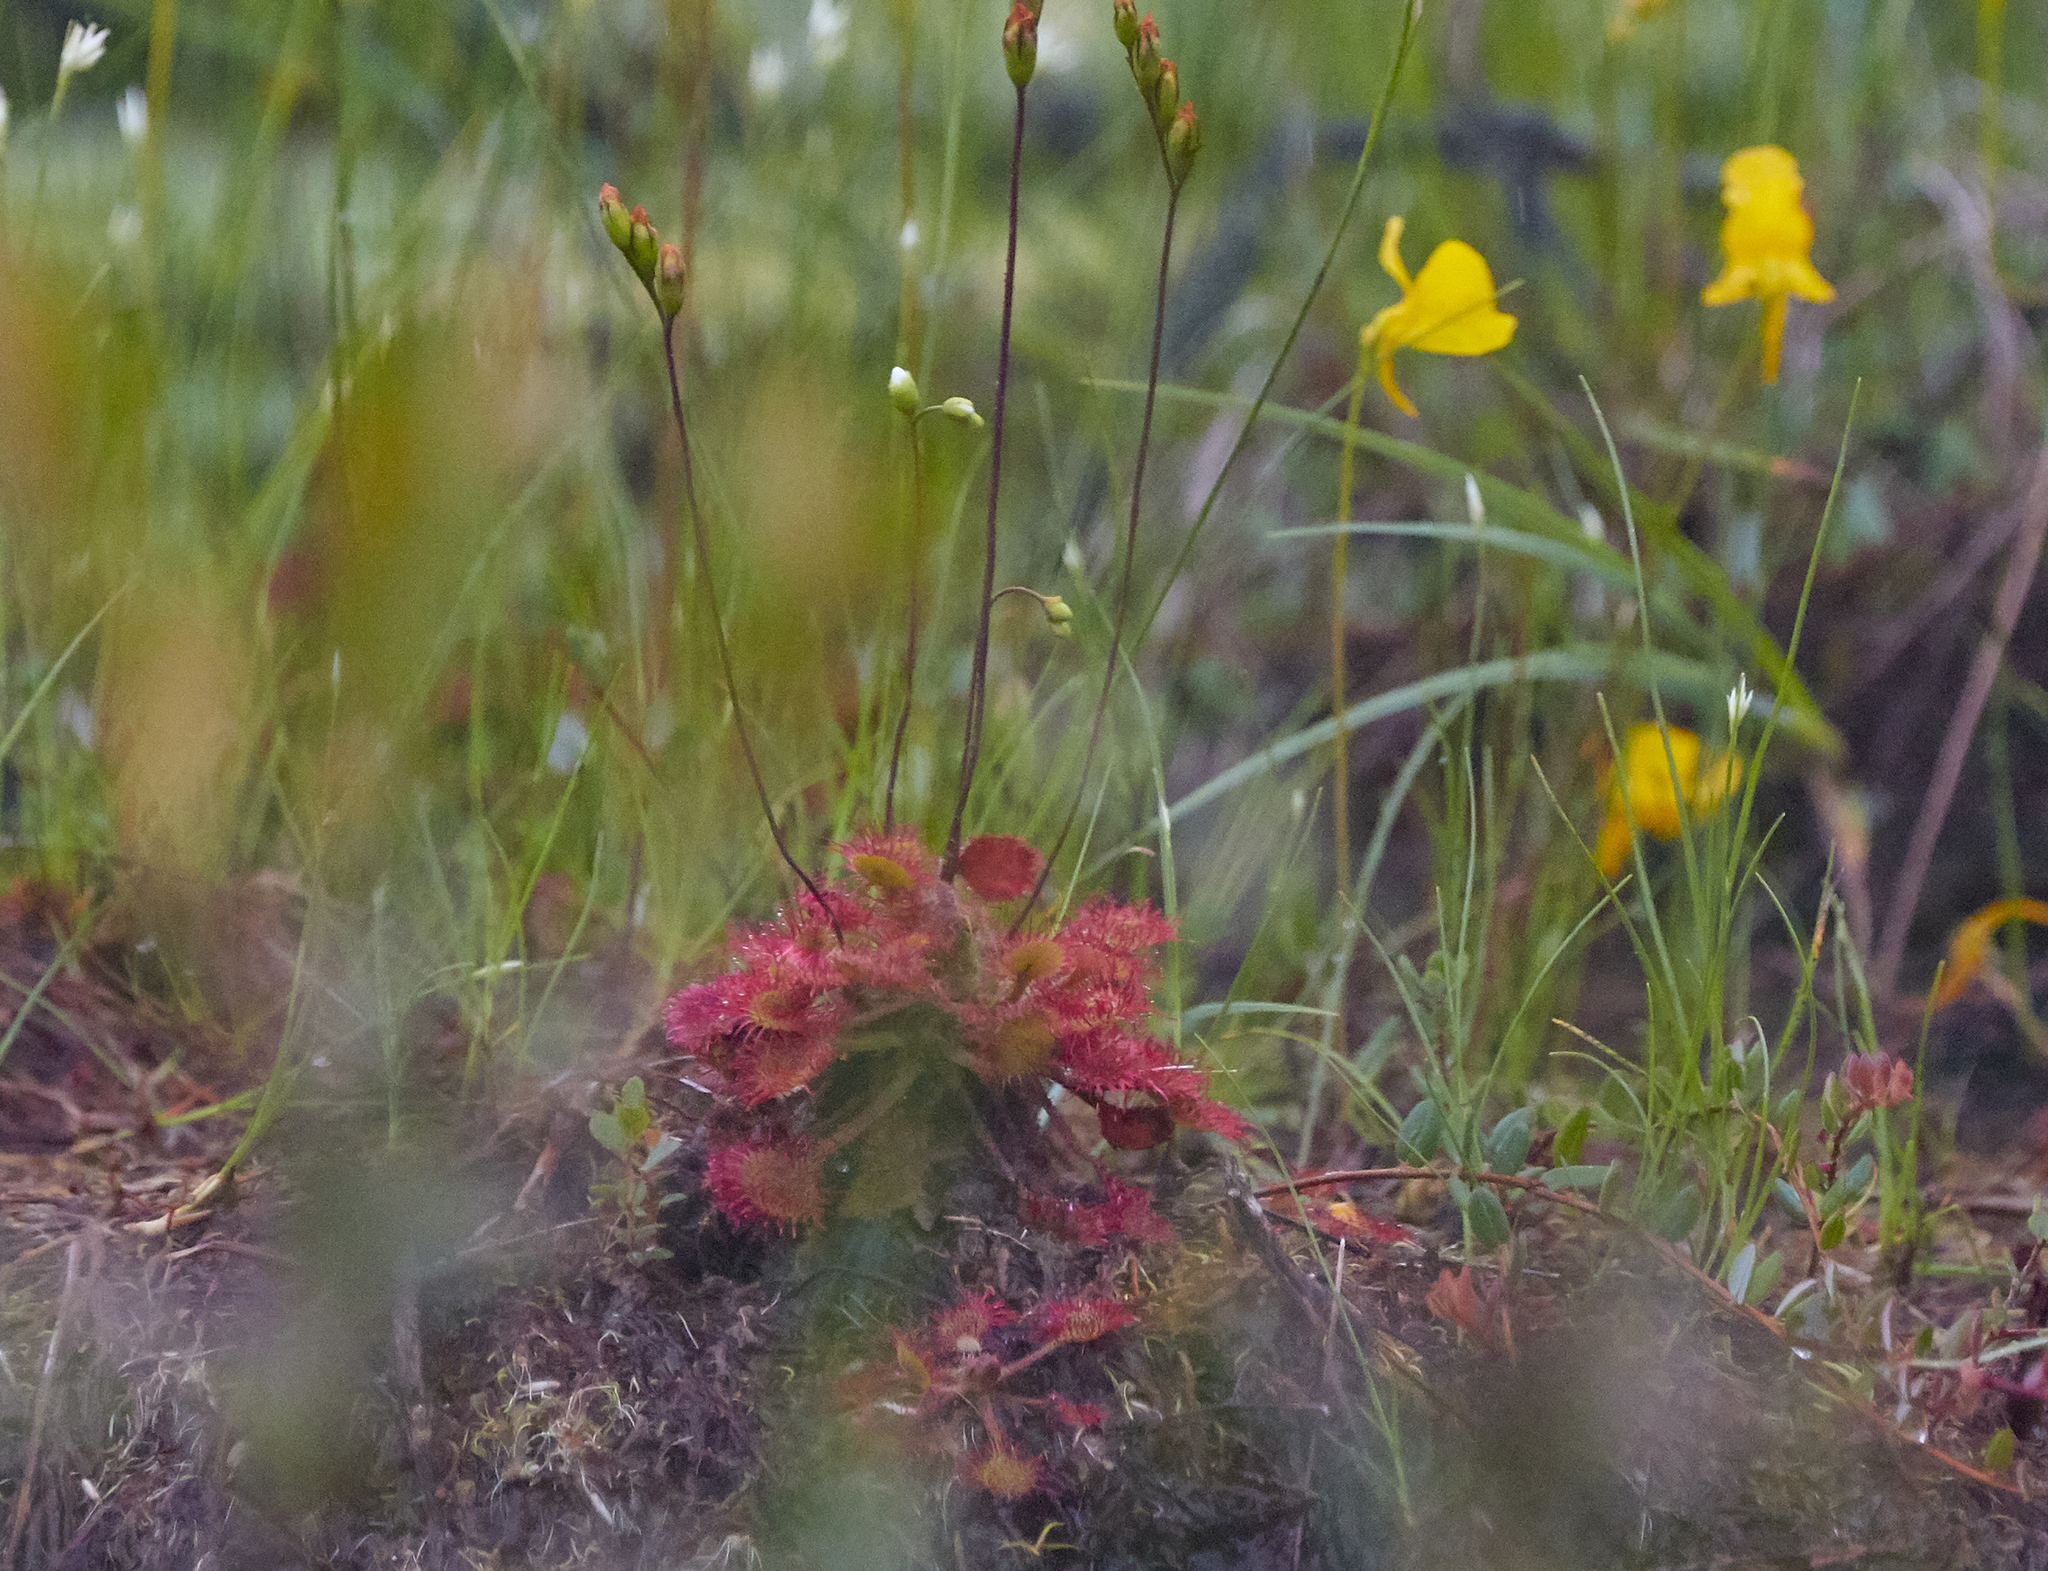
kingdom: Plantae
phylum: Tracheophyta
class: Magnoliopsida
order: Caryophyllales
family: Droseraceae
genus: Drosera
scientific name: Drosera rotundifolia
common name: Round-leaved sundew
